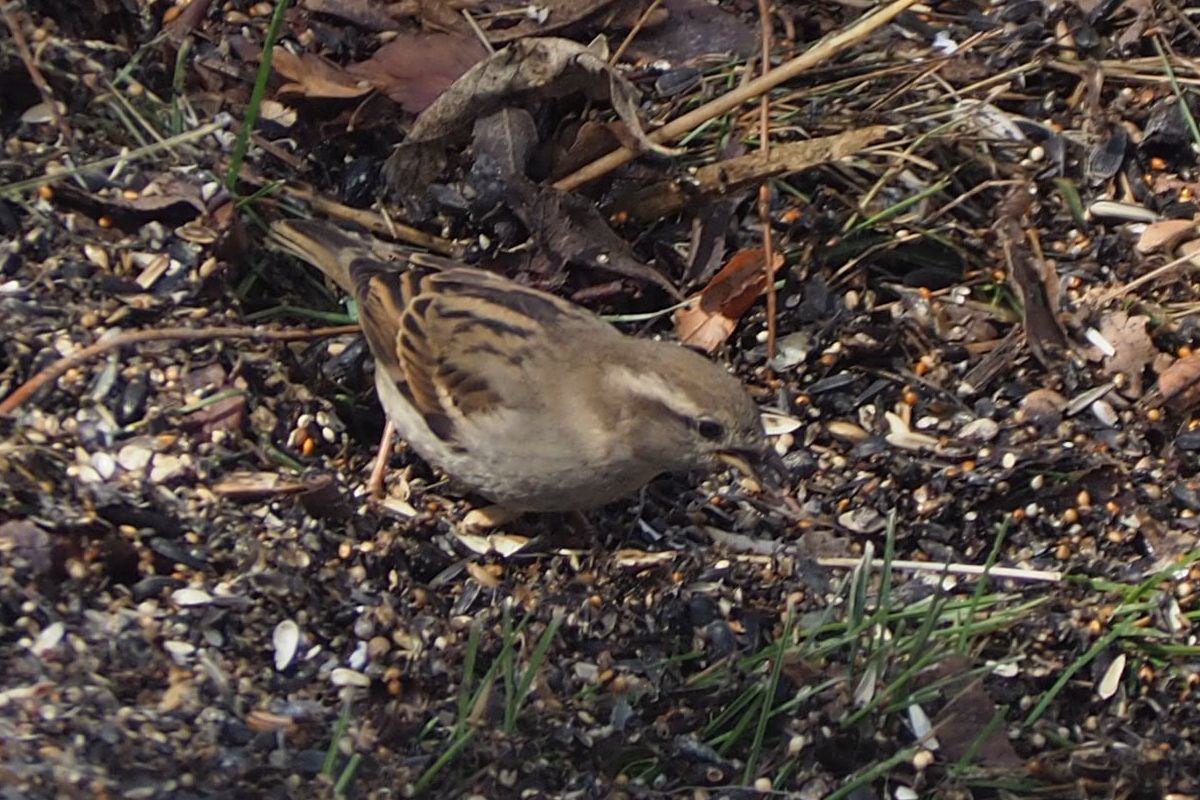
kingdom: Animalia
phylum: Chordata
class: Aves
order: Passeriformes
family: Passeridae
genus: Passer
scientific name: Passer domesticus
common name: House sparrow
